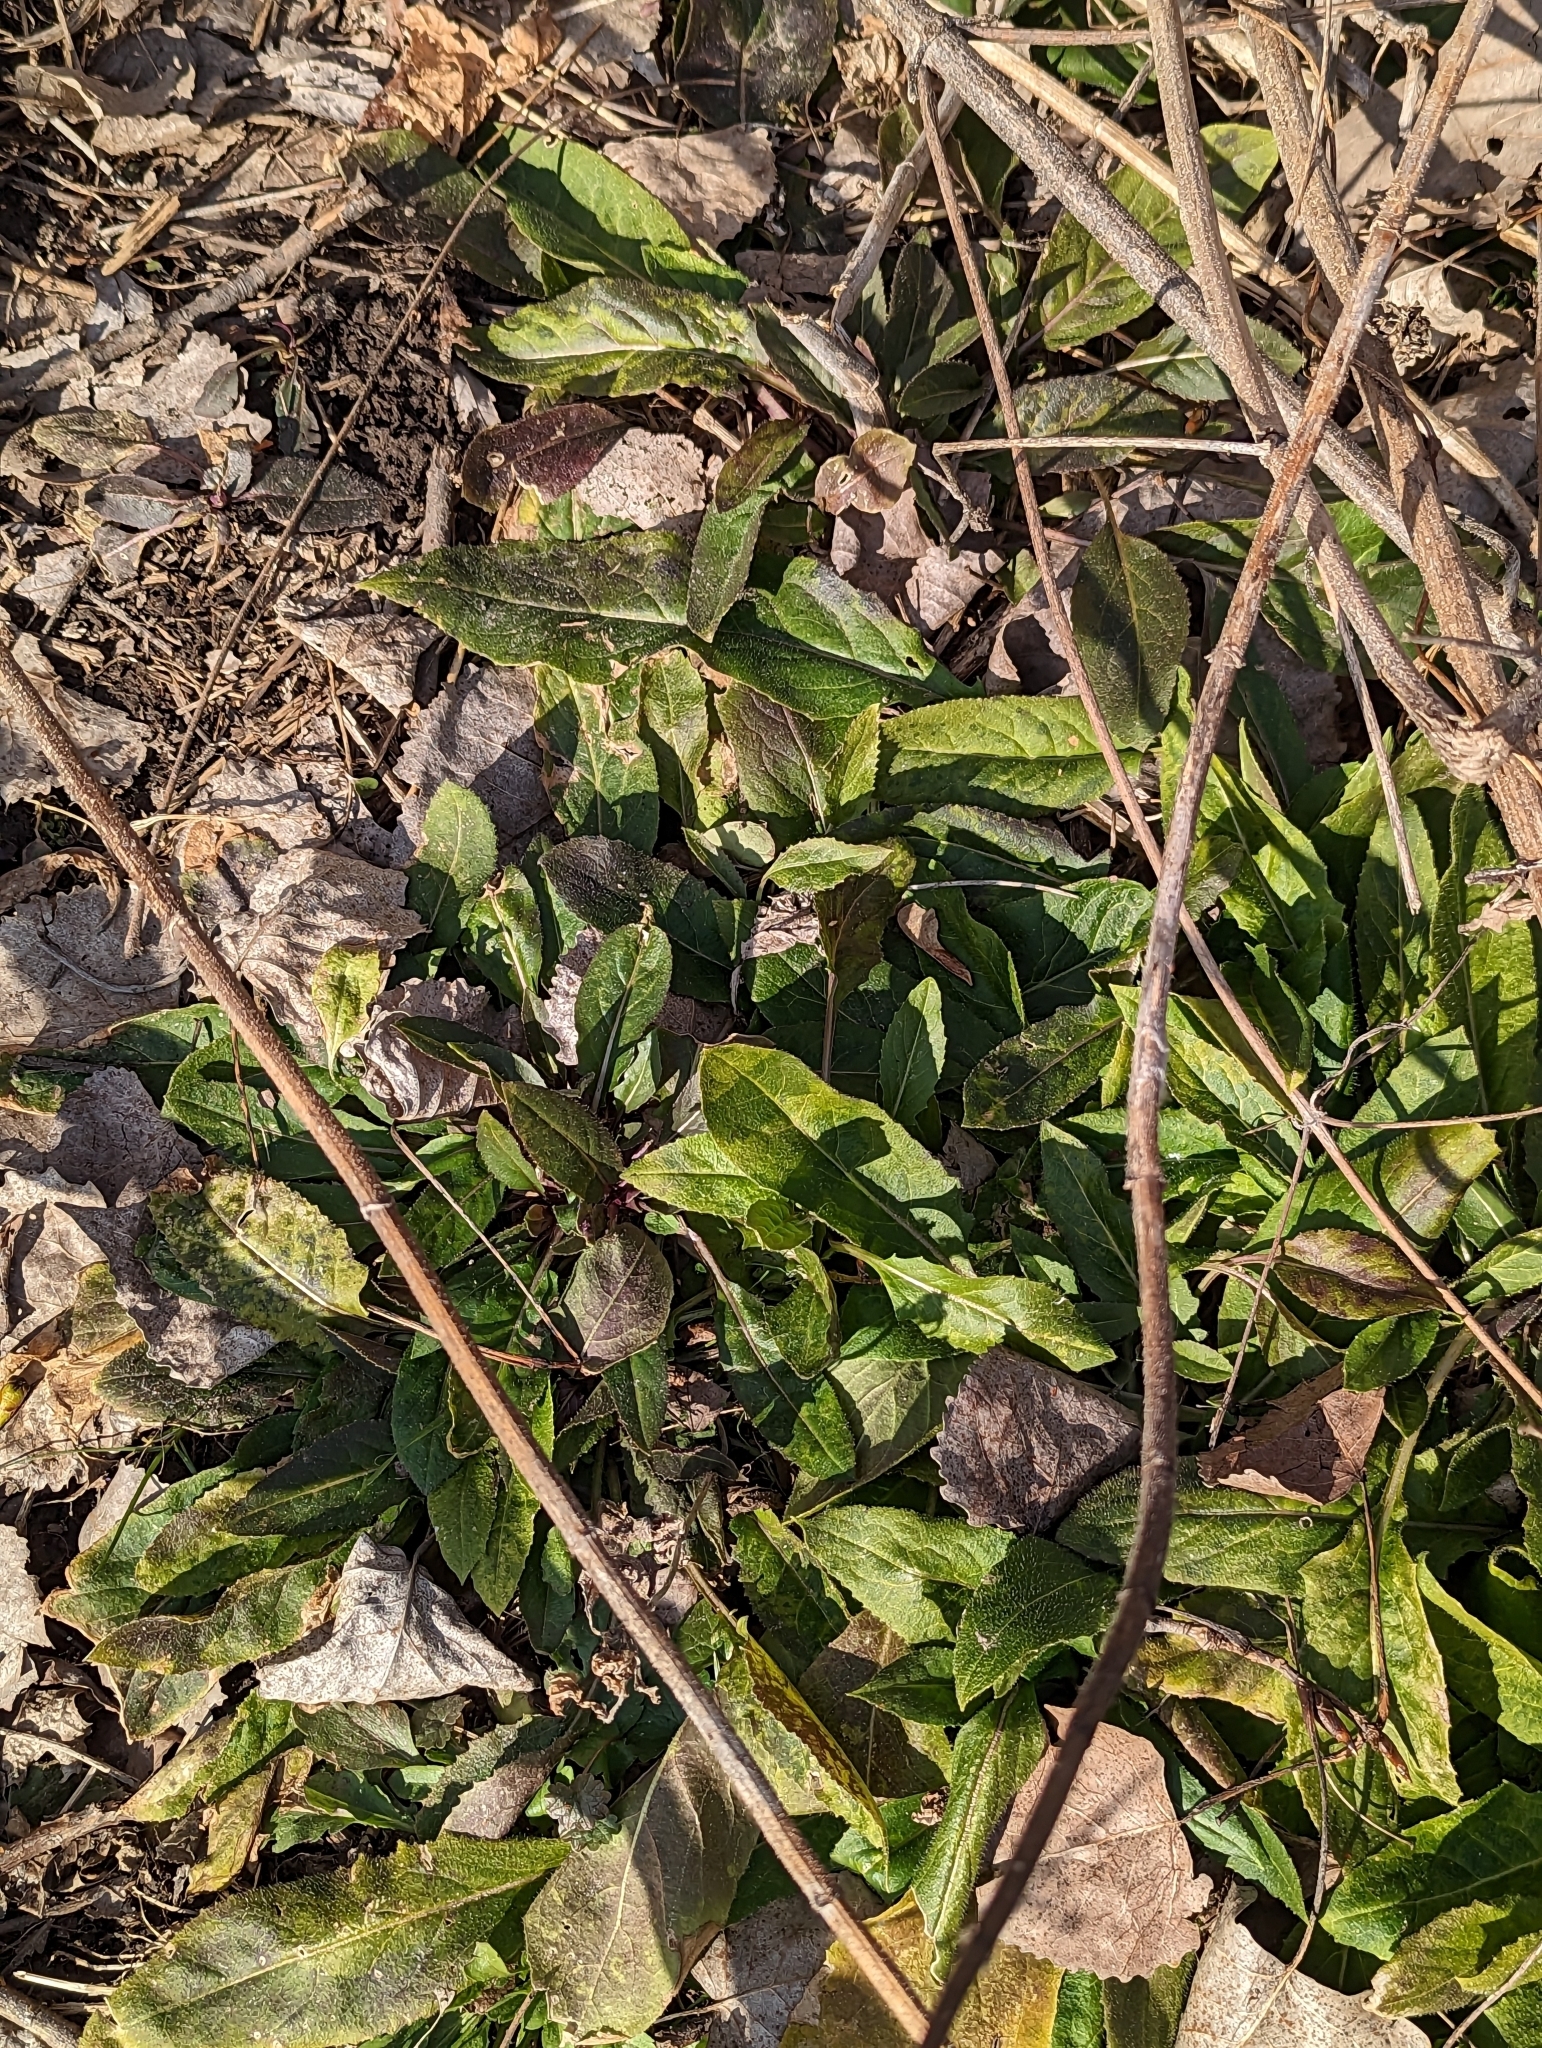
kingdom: Plantae
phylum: Tracheophyta
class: Magnoliopsida
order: Brassicales
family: Brassicaceae
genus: Hesperis
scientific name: Hesperis matronalis
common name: Dame's-violet
